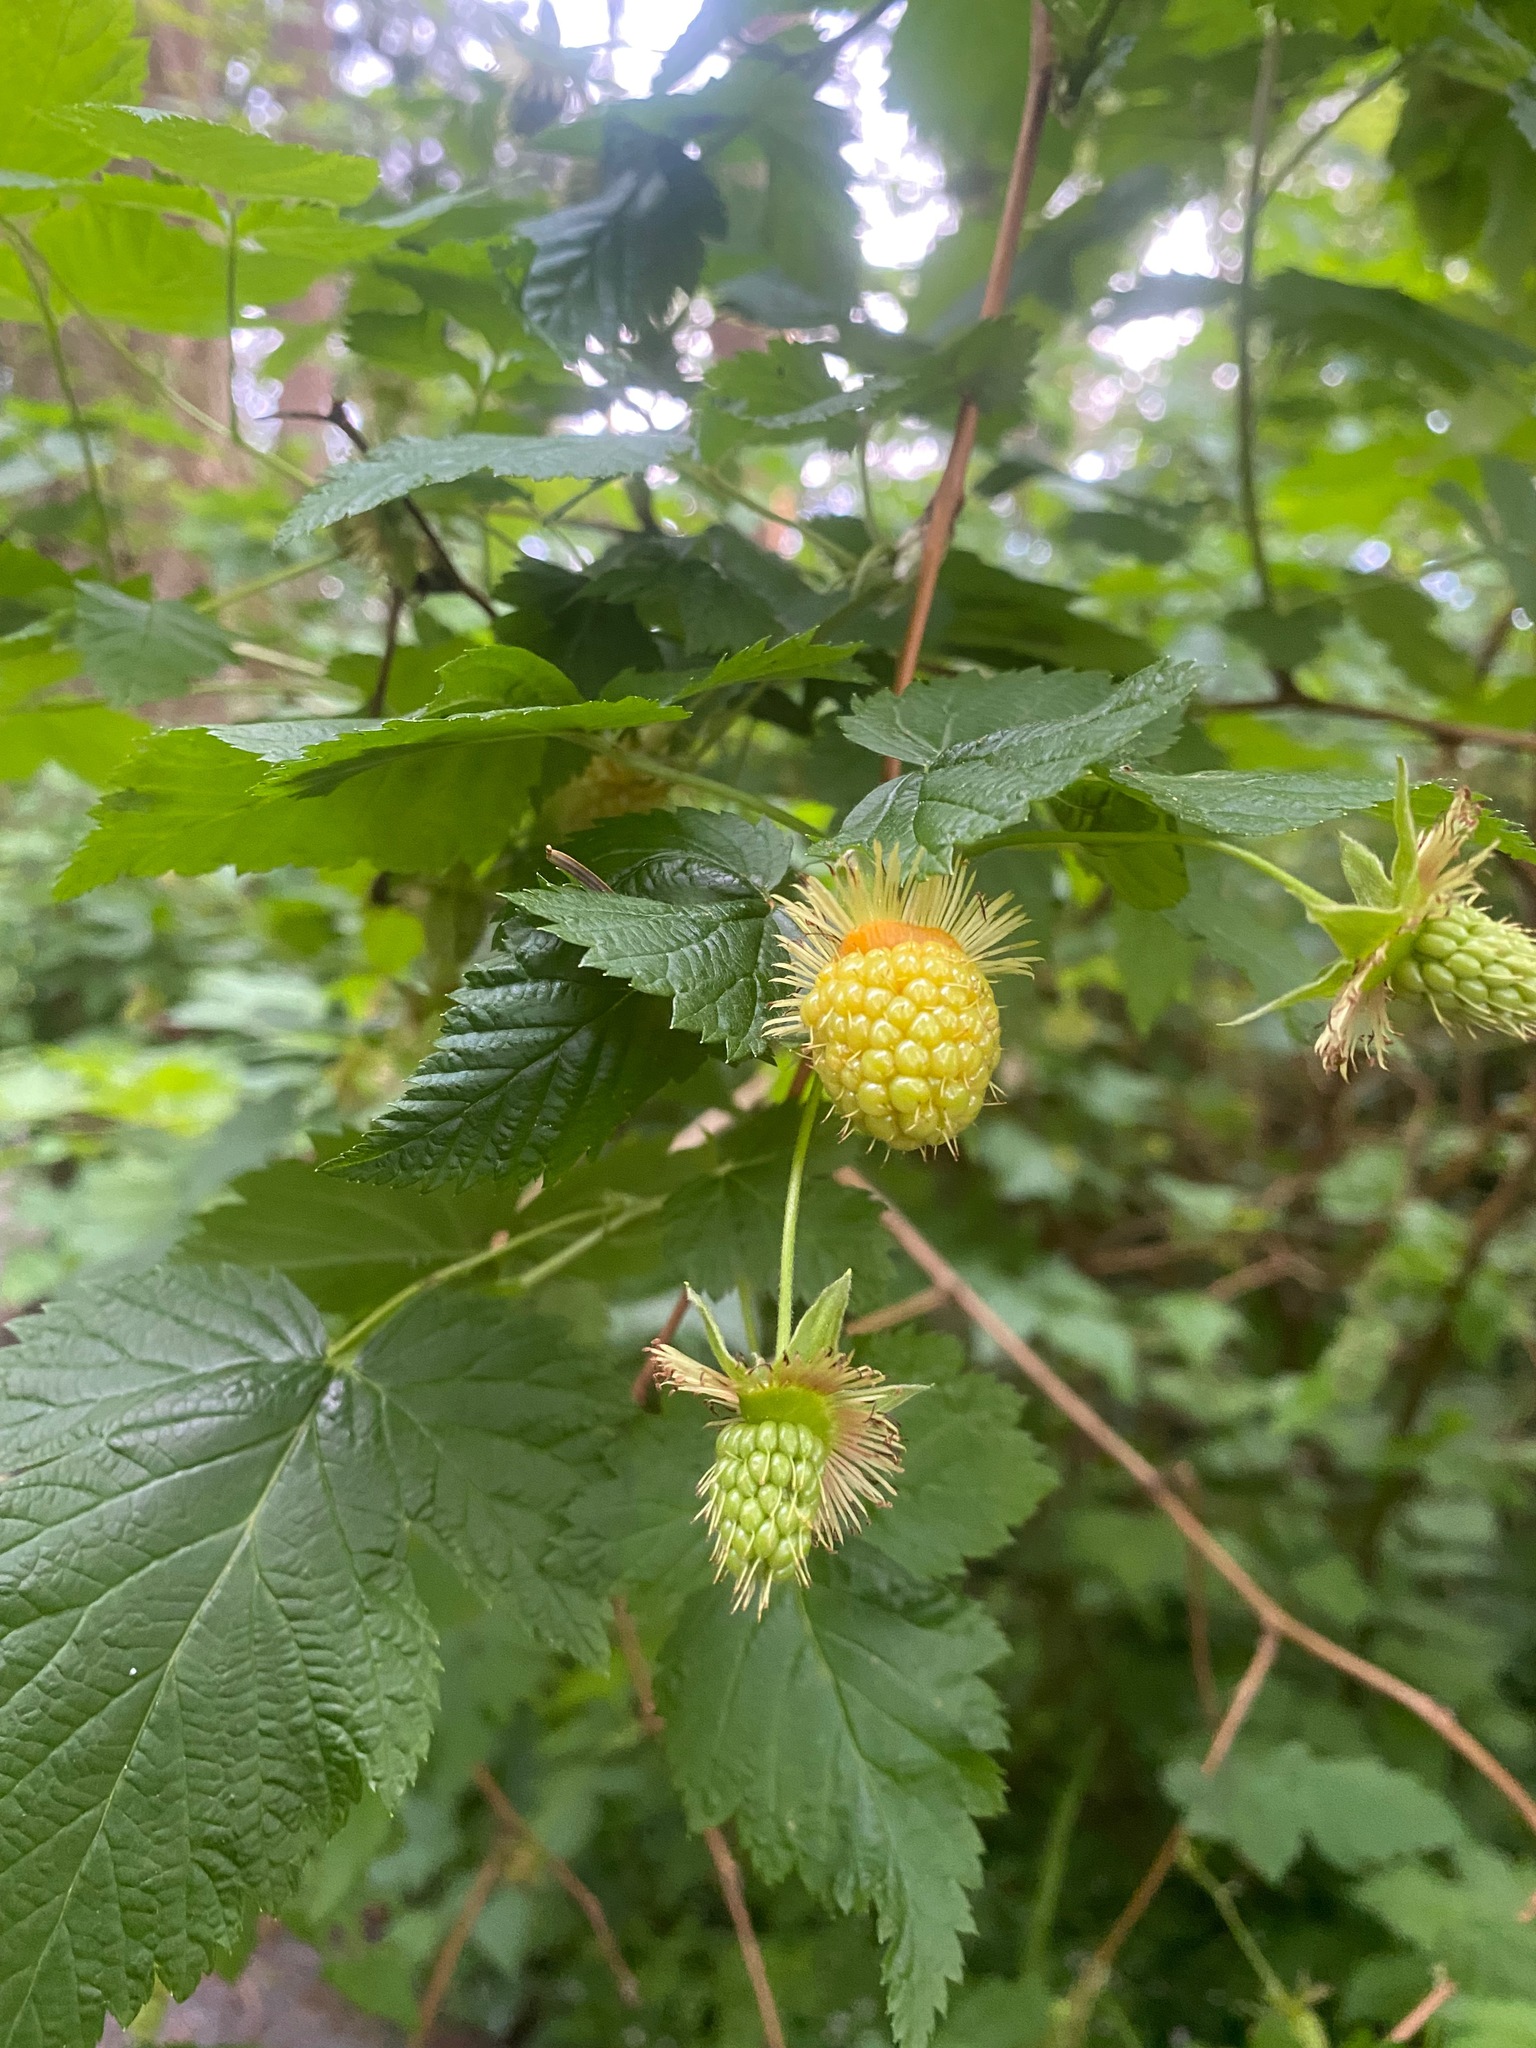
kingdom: Plantae
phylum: Tracheophyta
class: Magnoliopsida
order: Rosales
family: Rosaceae
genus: Rubus
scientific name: Rubus spectabilis
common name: Salmonberry
